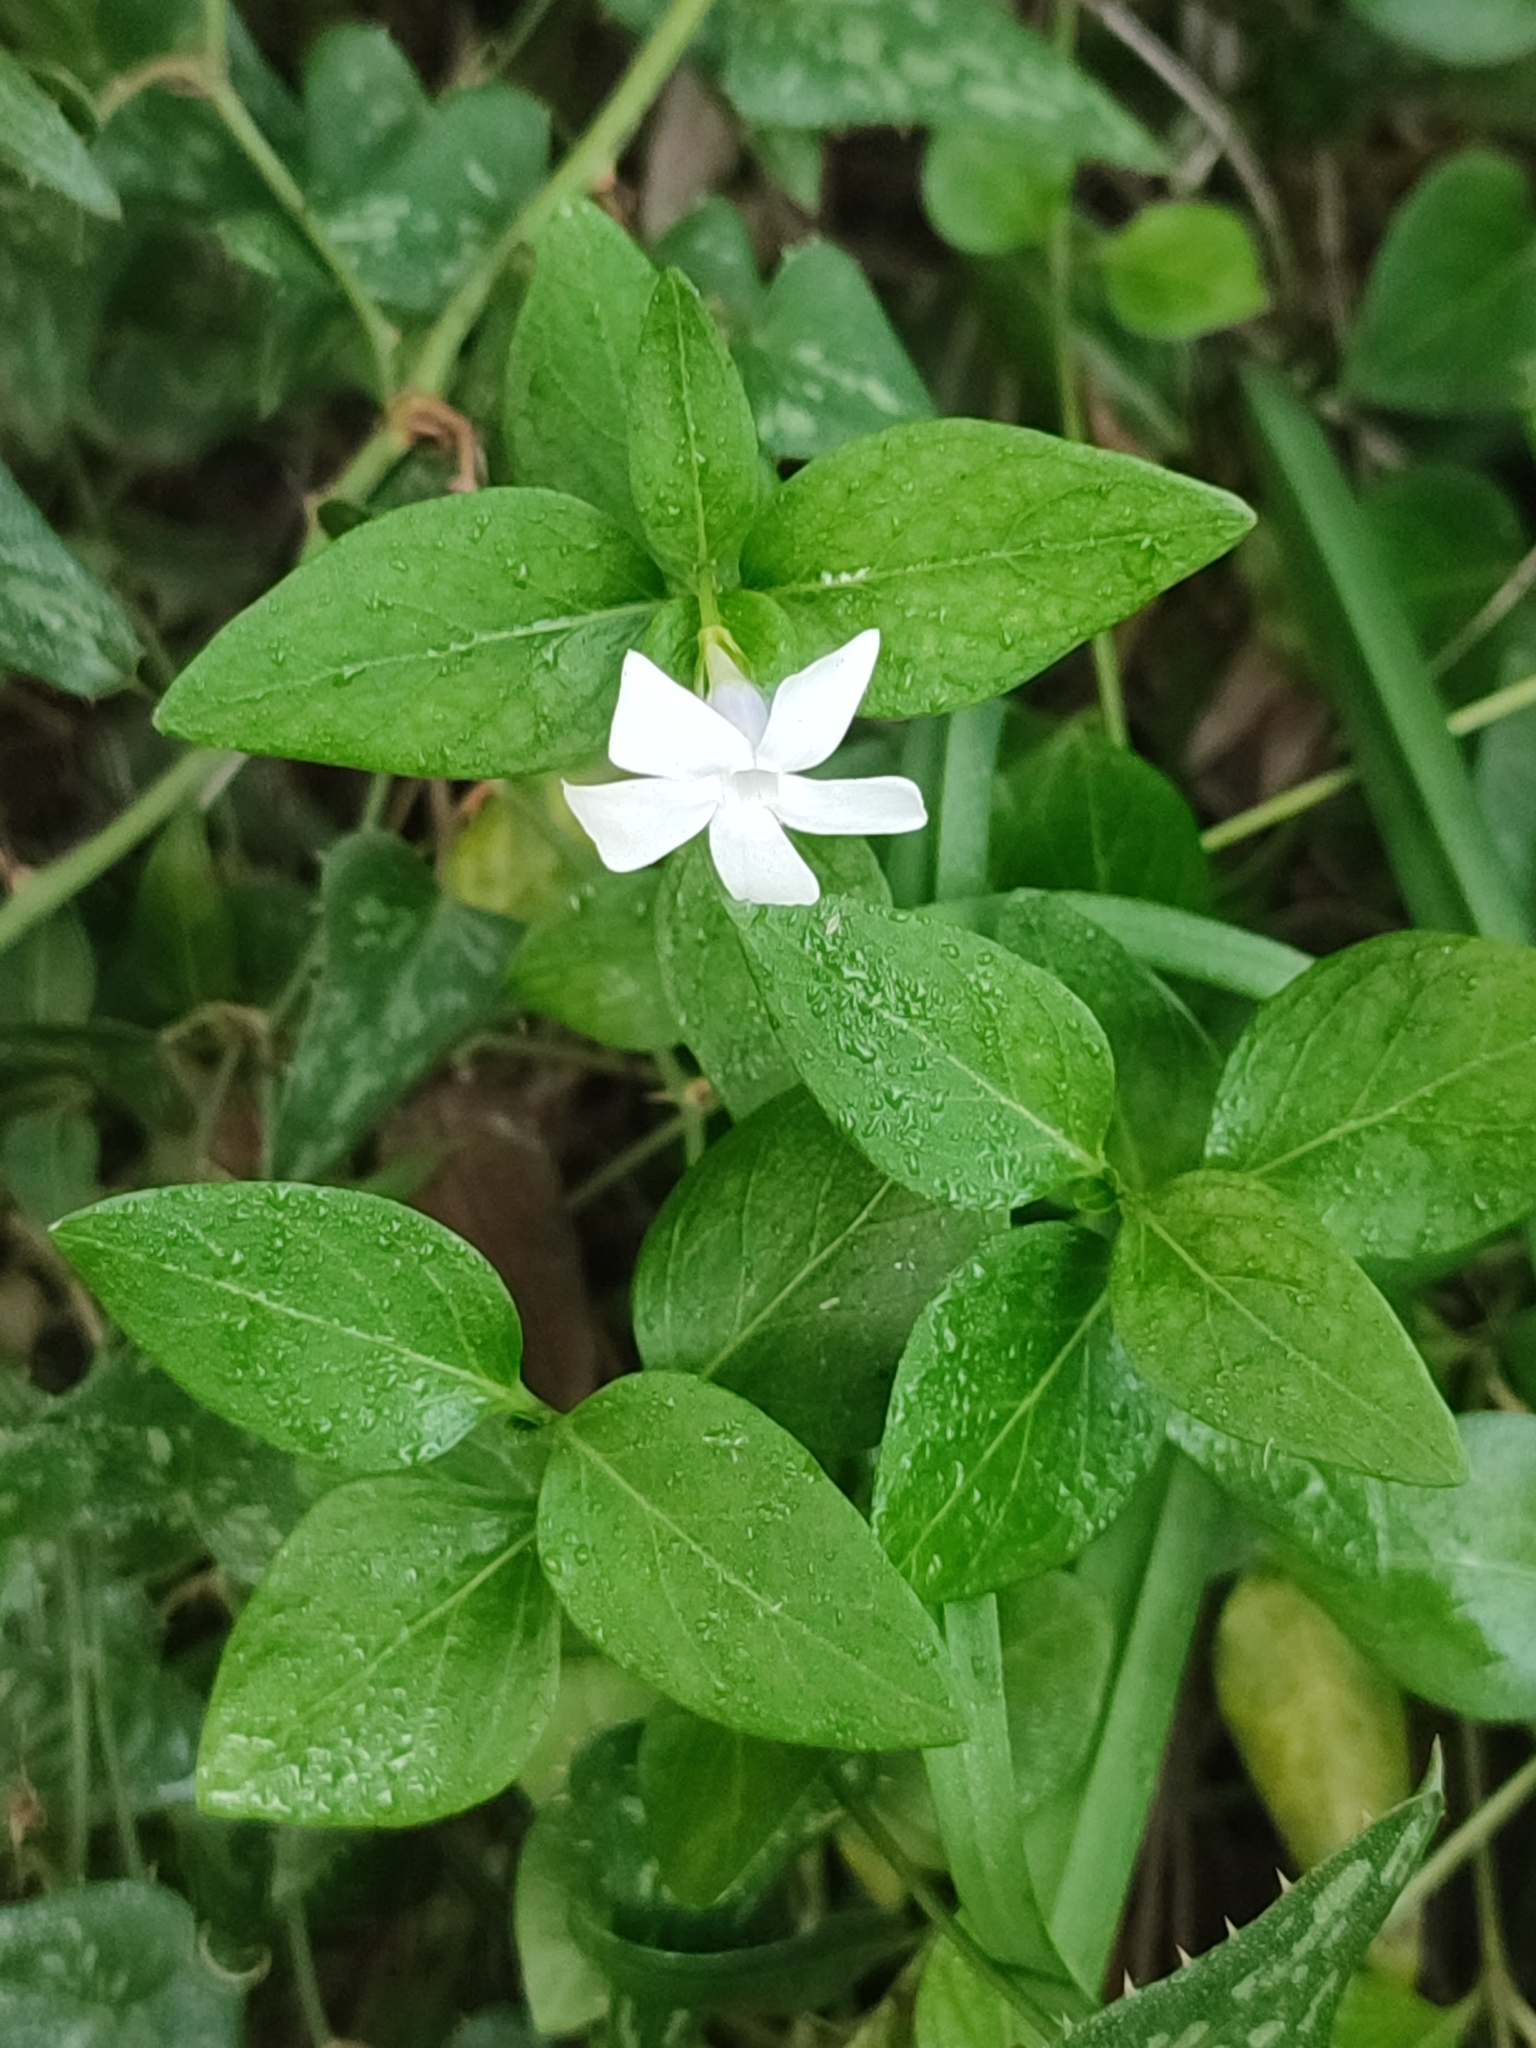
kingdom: Plantae
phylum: Tracheophyta
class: Magnoliopsida
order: Gentianales
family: Apocynaceae
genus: Vinca
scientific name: Vinca difformis
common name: Intermediate periwinkle
